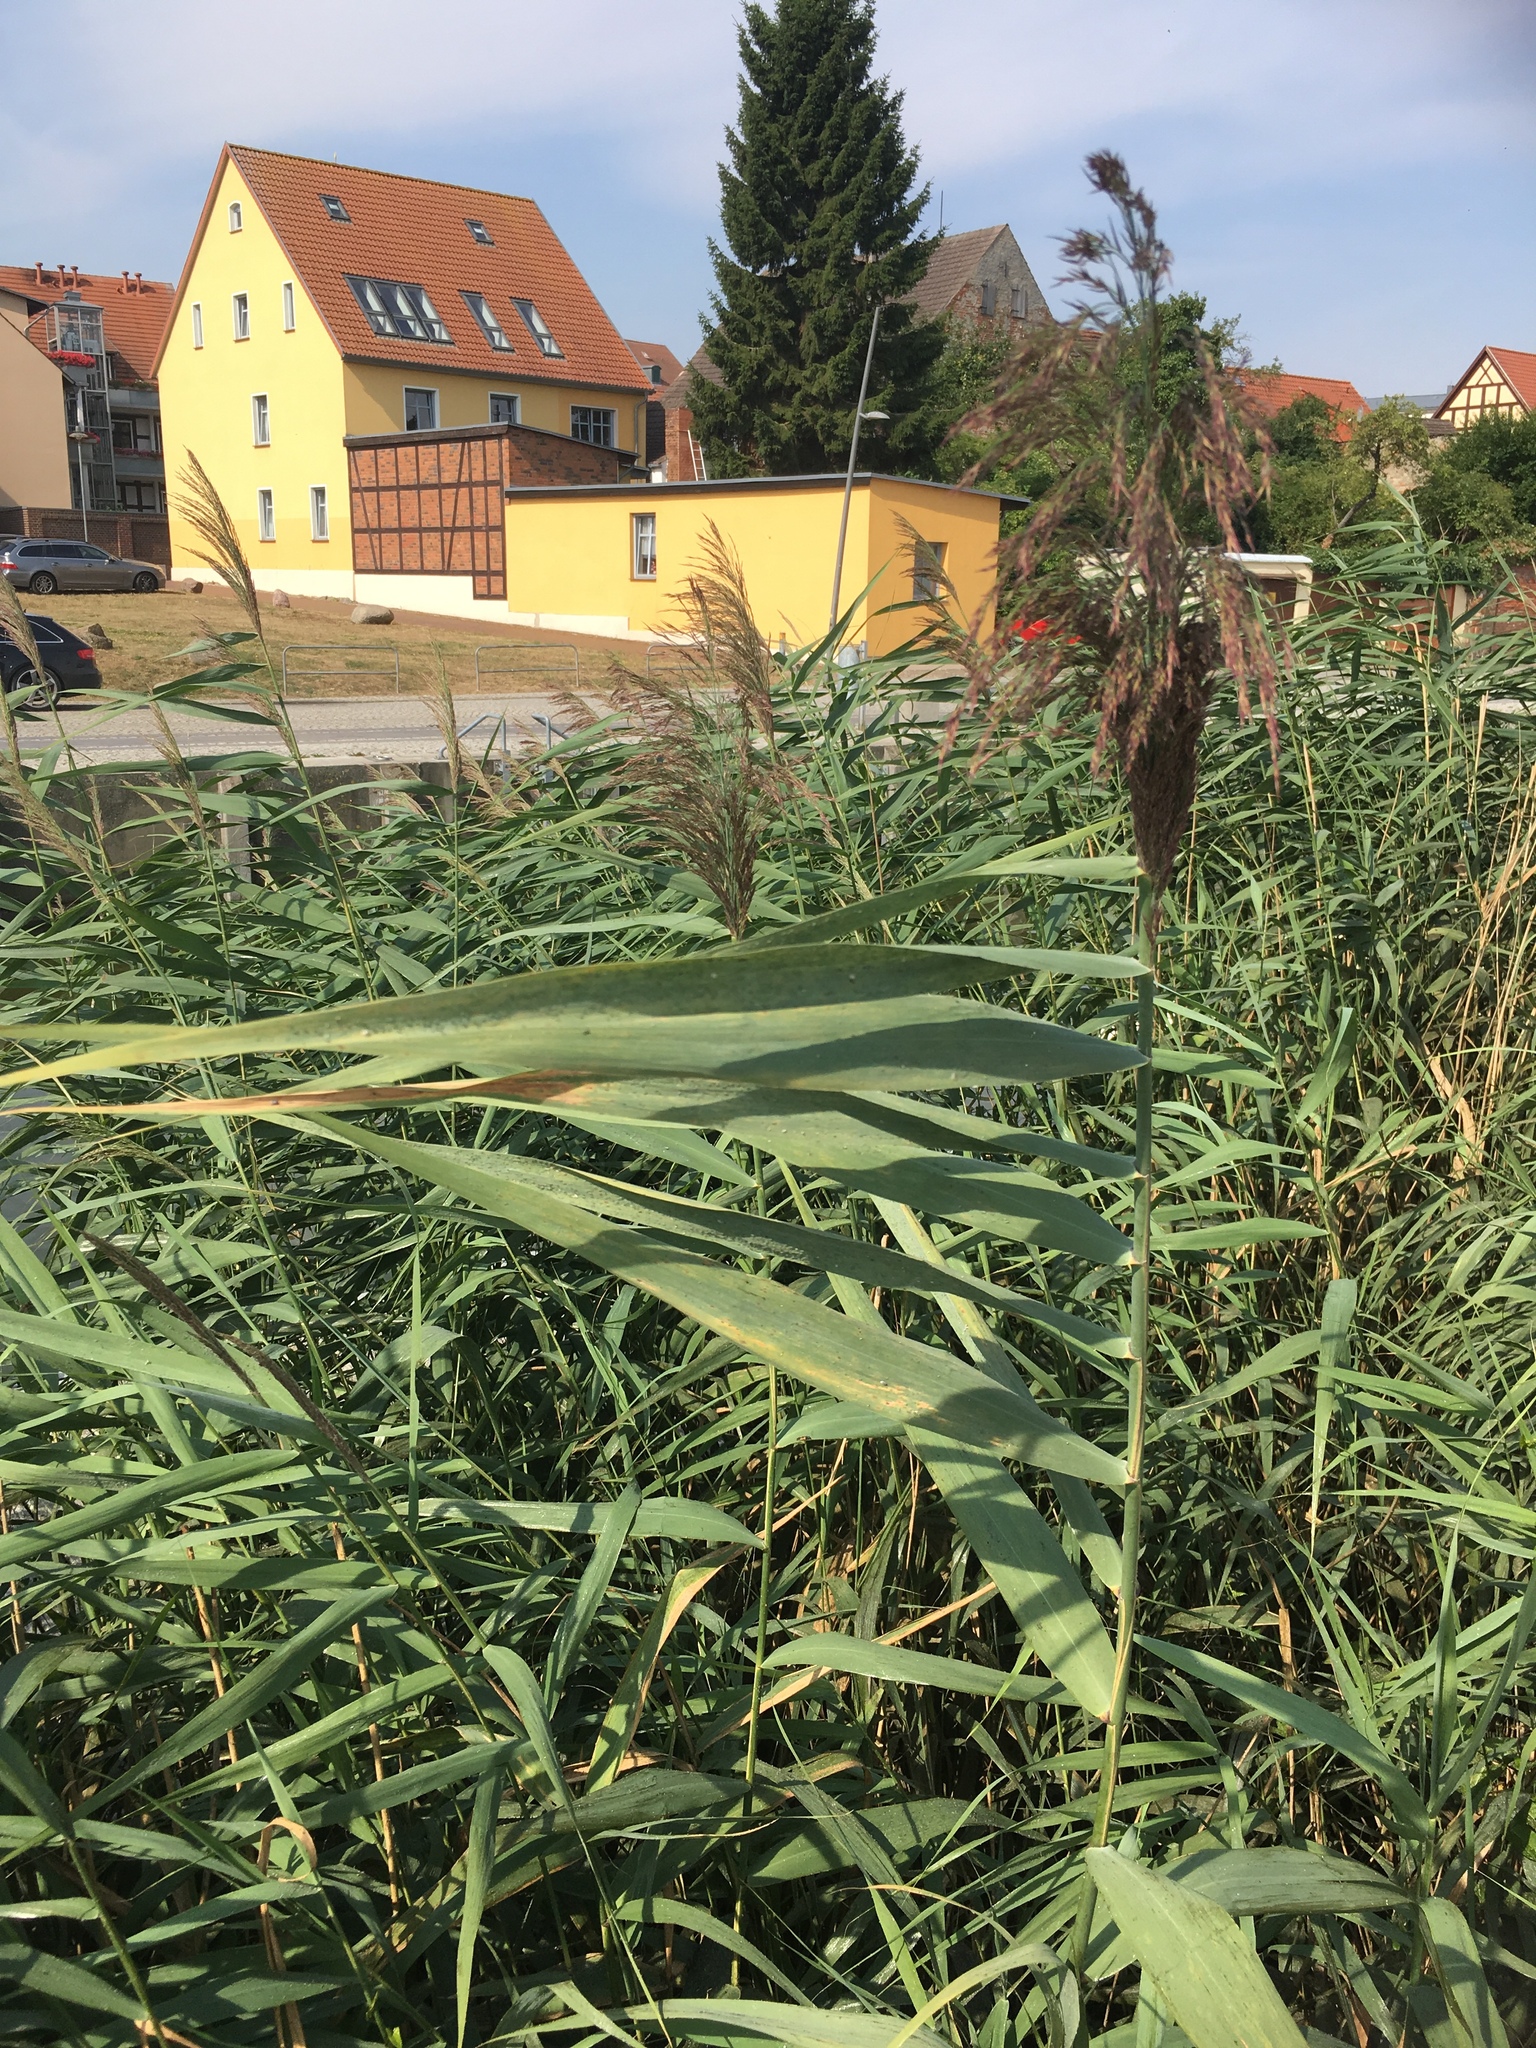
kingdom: Plantae
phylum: Tracheophyta
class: Liliopsida
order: Poales
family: Poaceae
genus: Phragmites
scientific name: Phragmites australis
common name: Common reed
